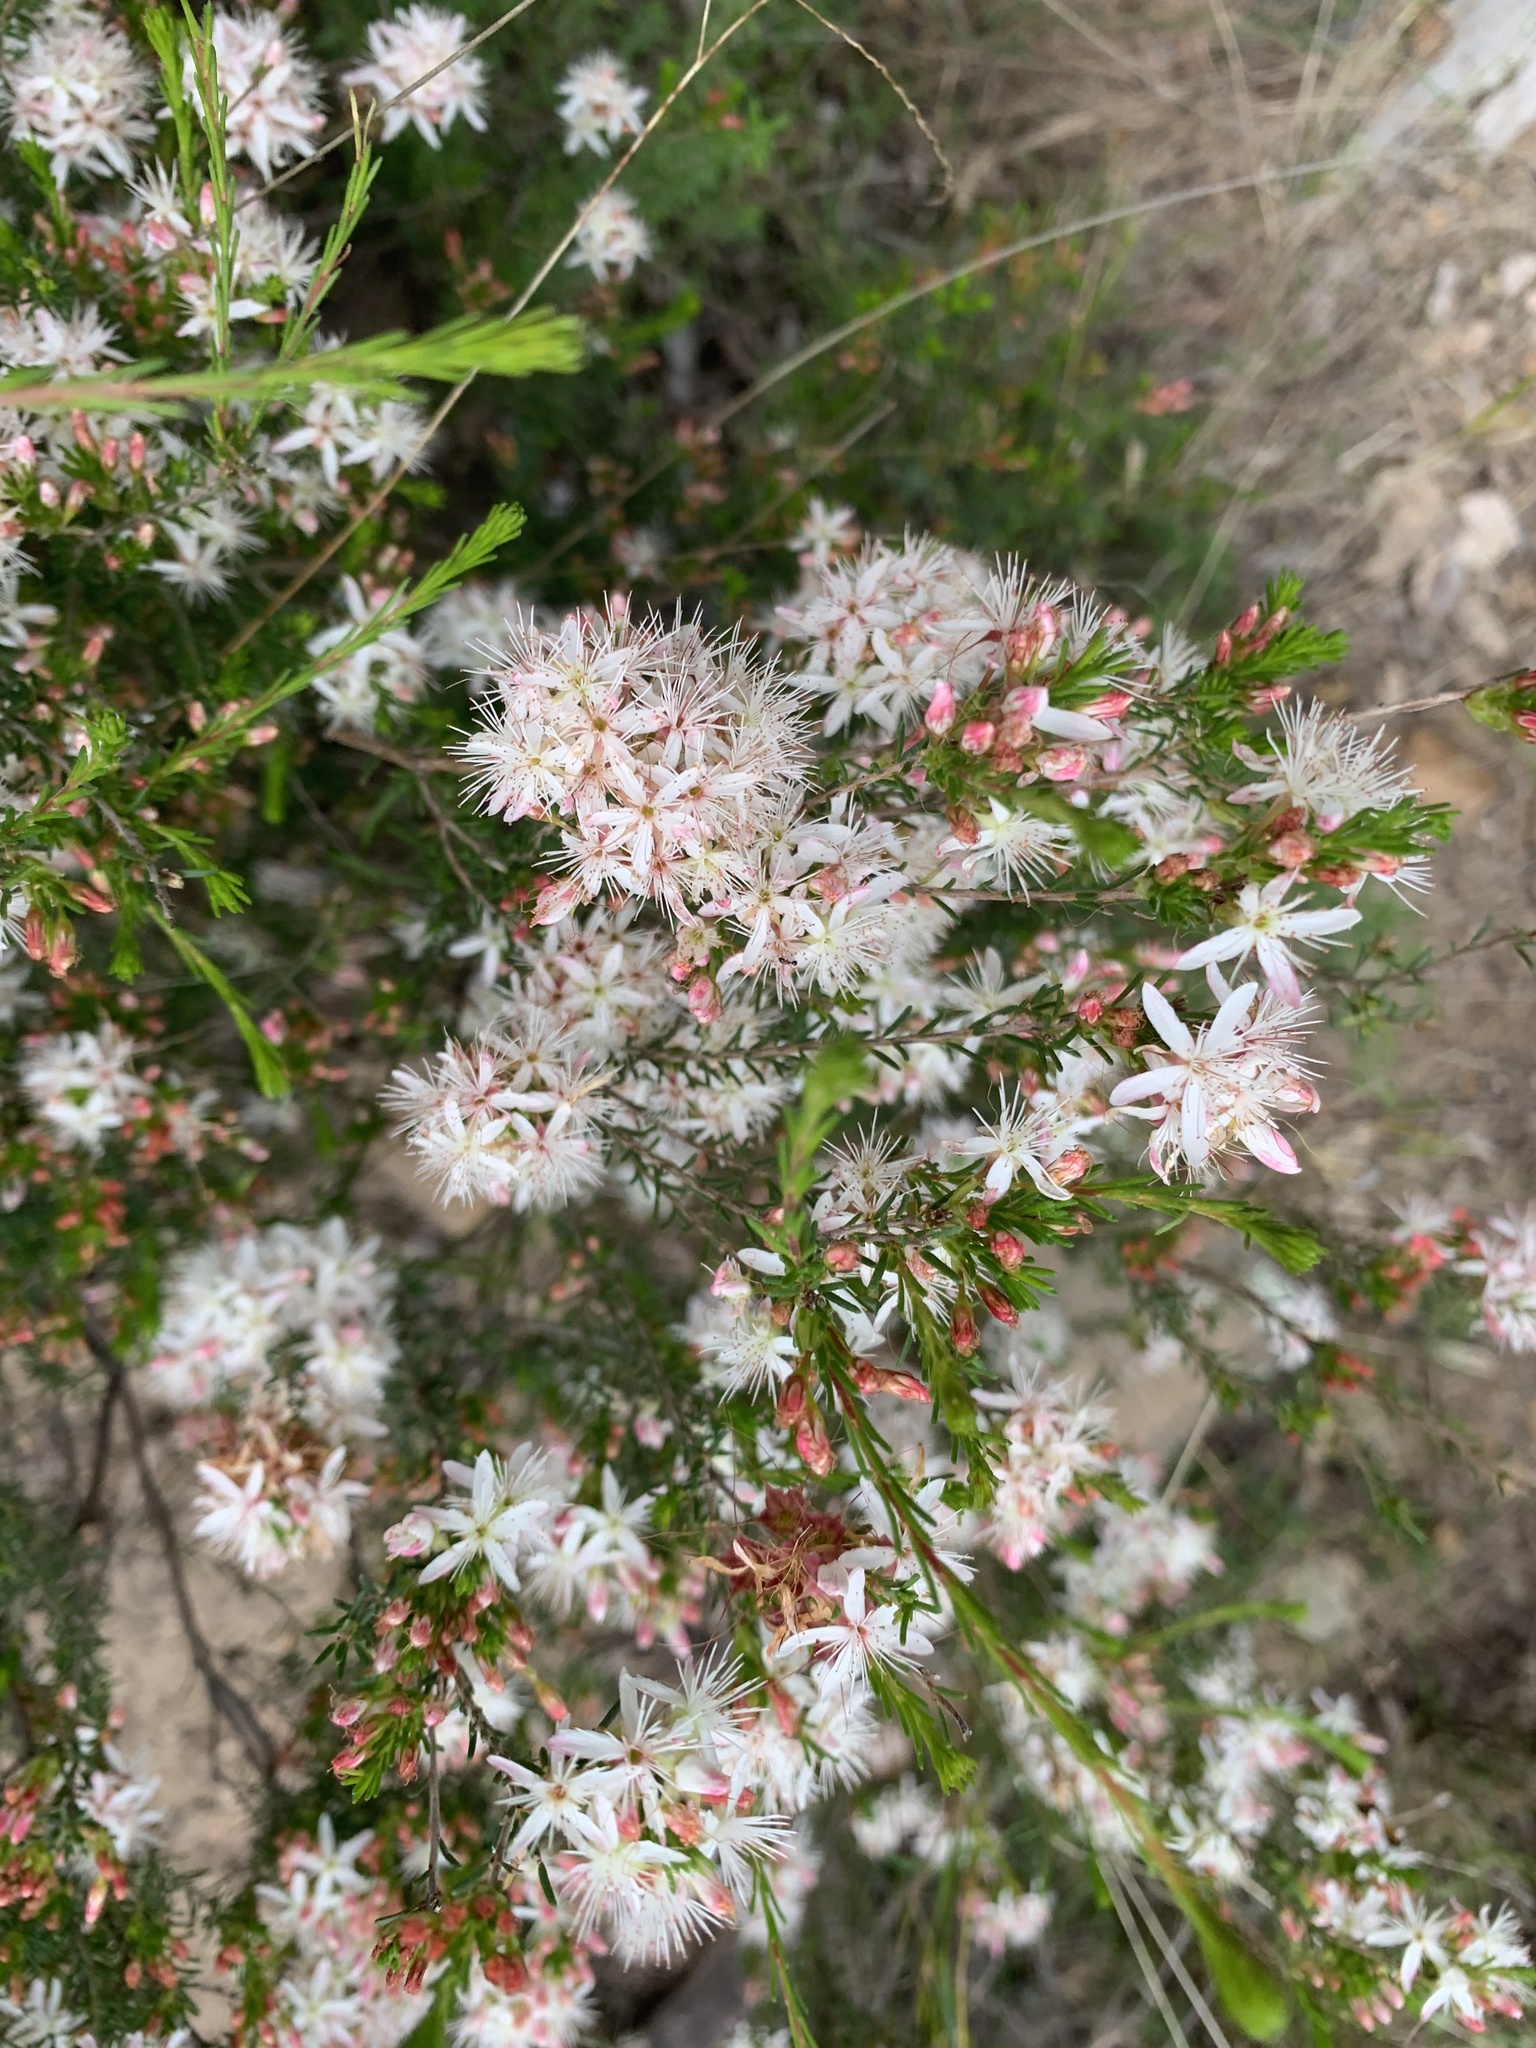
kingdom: Plantae
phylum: Tracheophyta
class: Magnoliopsida
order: Myrtales
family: Myrtaceae
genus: Calytrix
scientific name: Calytrix tetragona
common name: Common fringe myrtle
